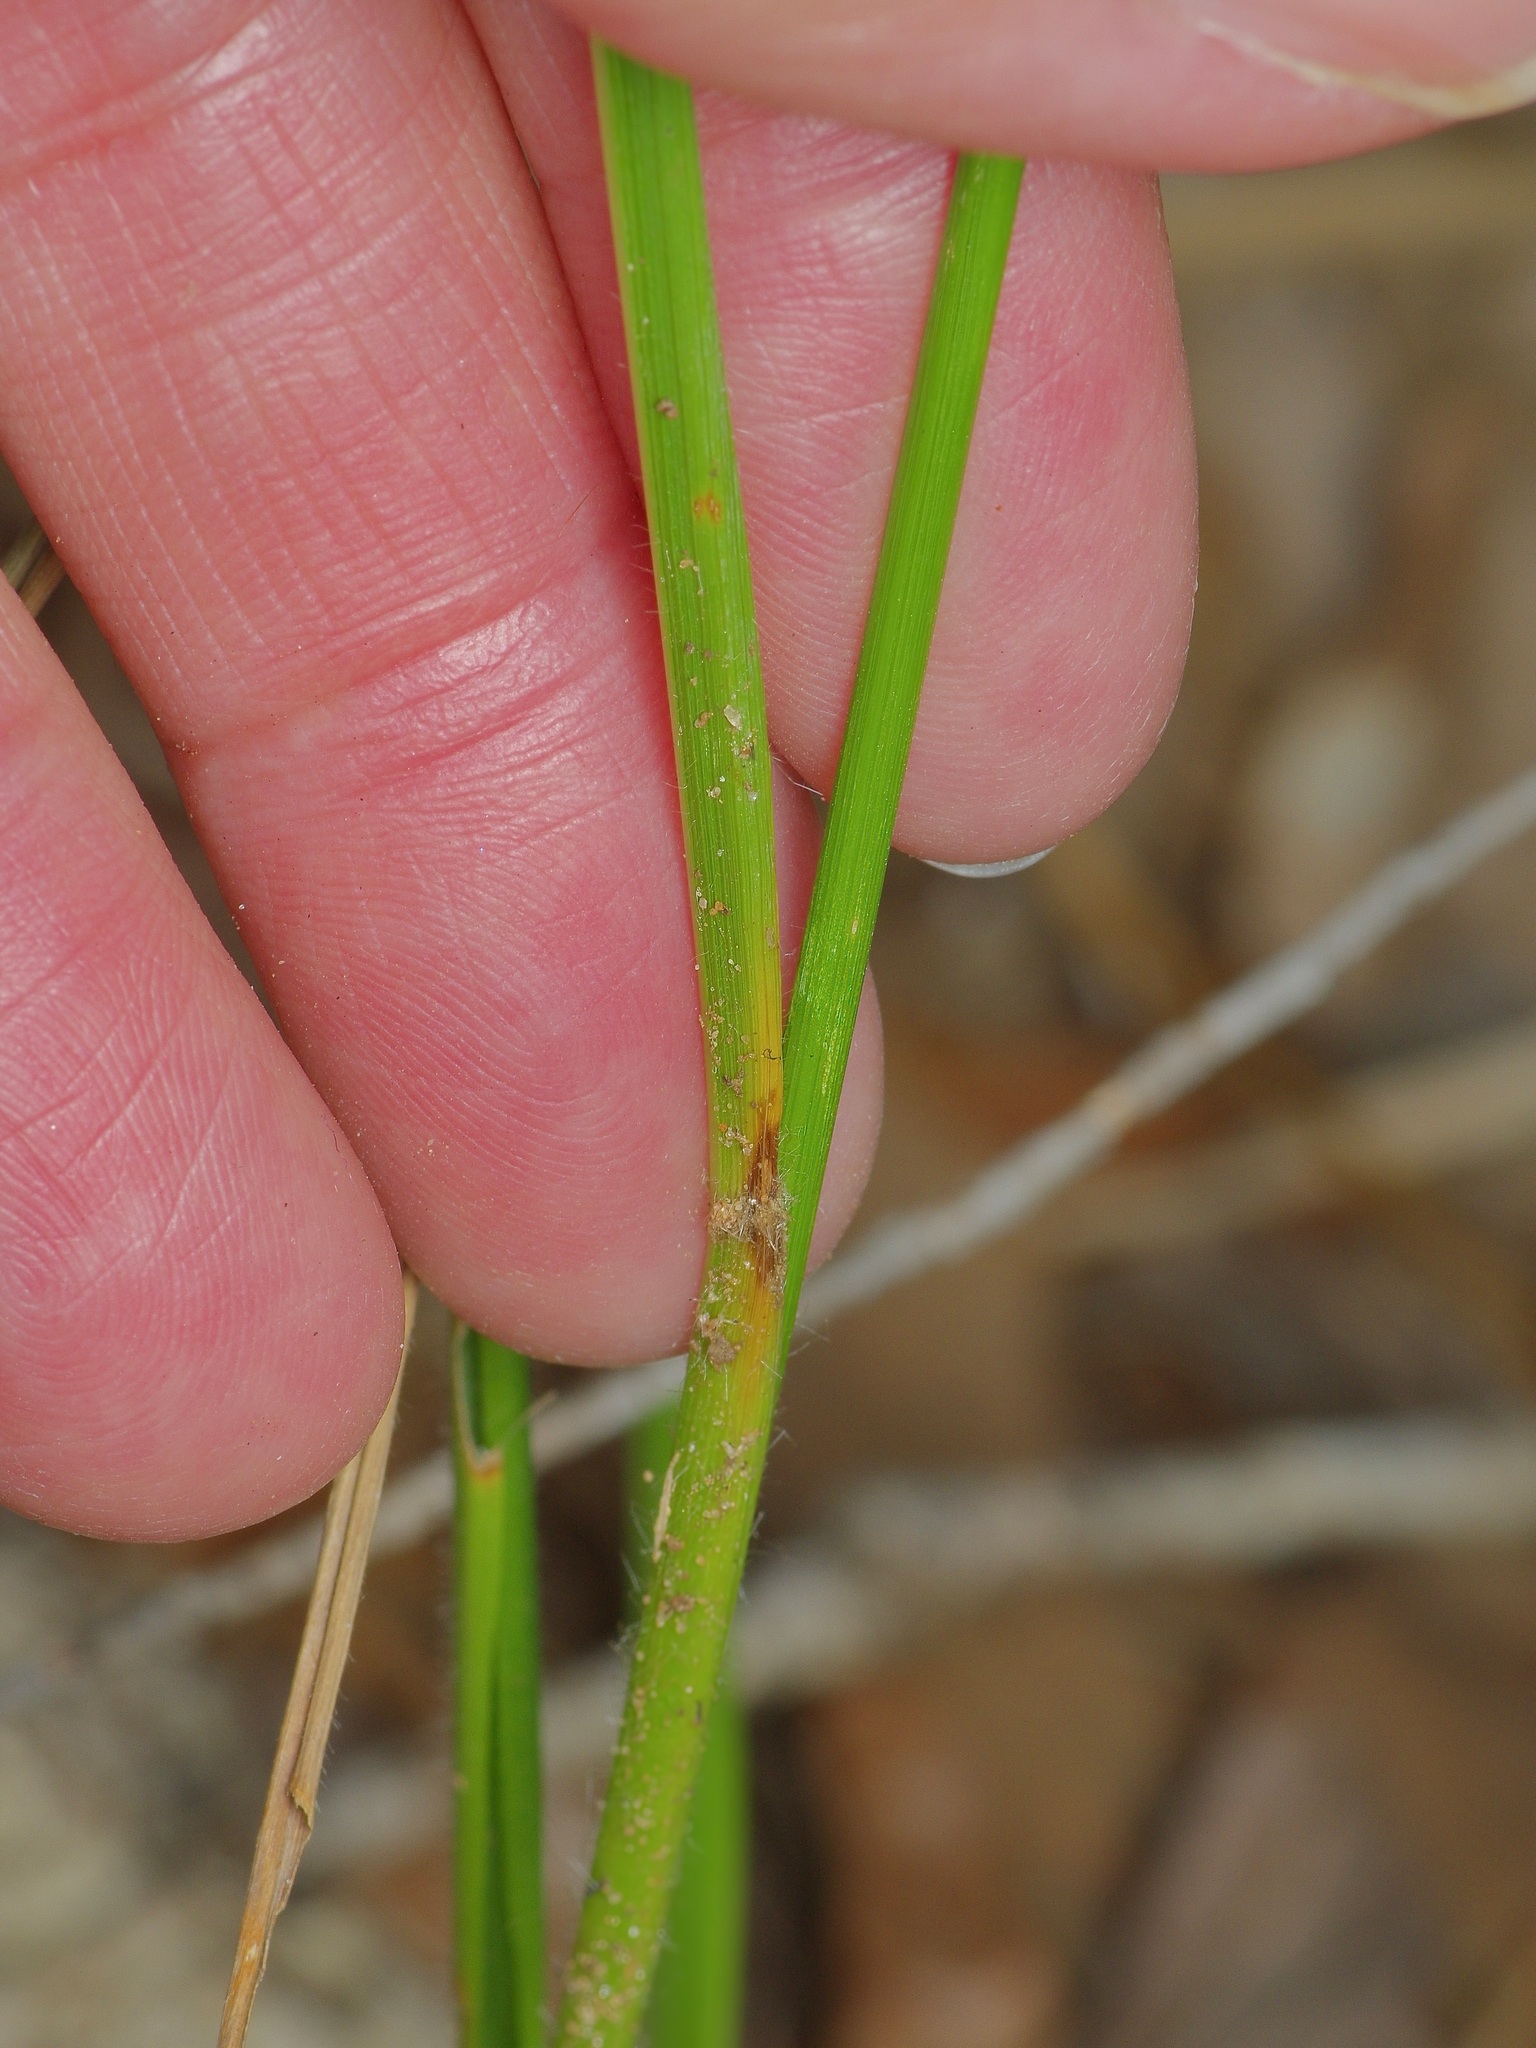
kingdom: Plantae
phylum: Tracheophyta
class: Liliopsida
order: Poales
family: Poaceae
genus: Chasmanthium
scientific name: Chasmanthium laxum
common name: Slender chasmanthium
